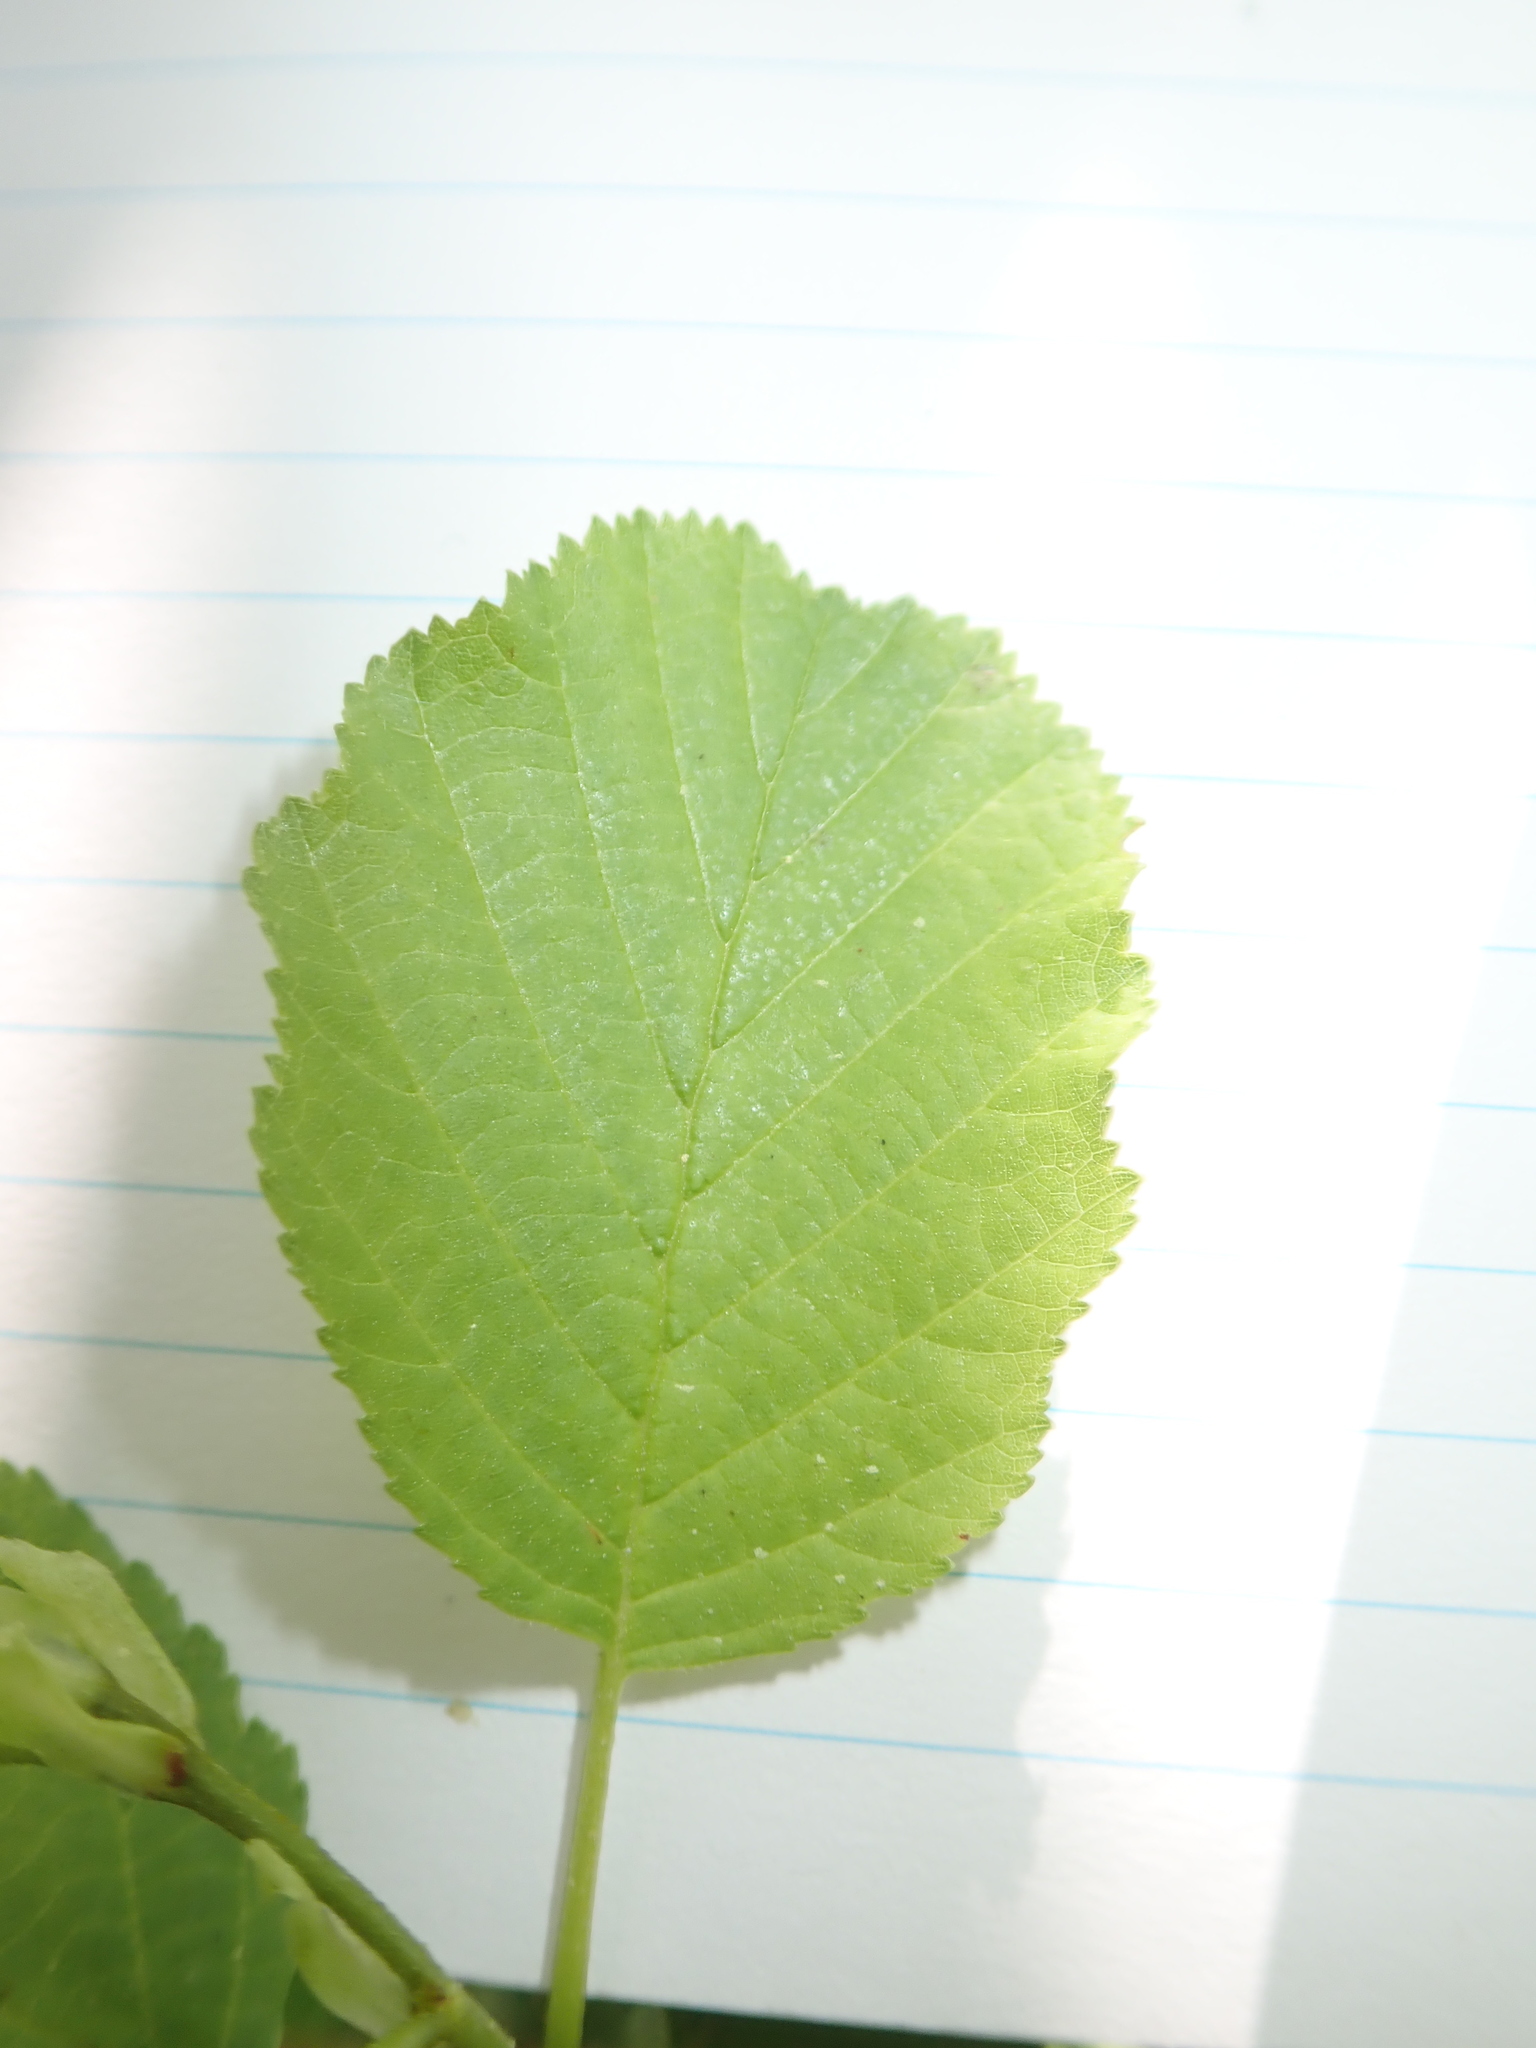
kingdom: Plantae
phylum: Tracheophyta
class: Magnoliopsida
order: Fagales
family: Betulaceae
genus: Alnus
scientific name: Alnus glutinosa
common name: Black alder
